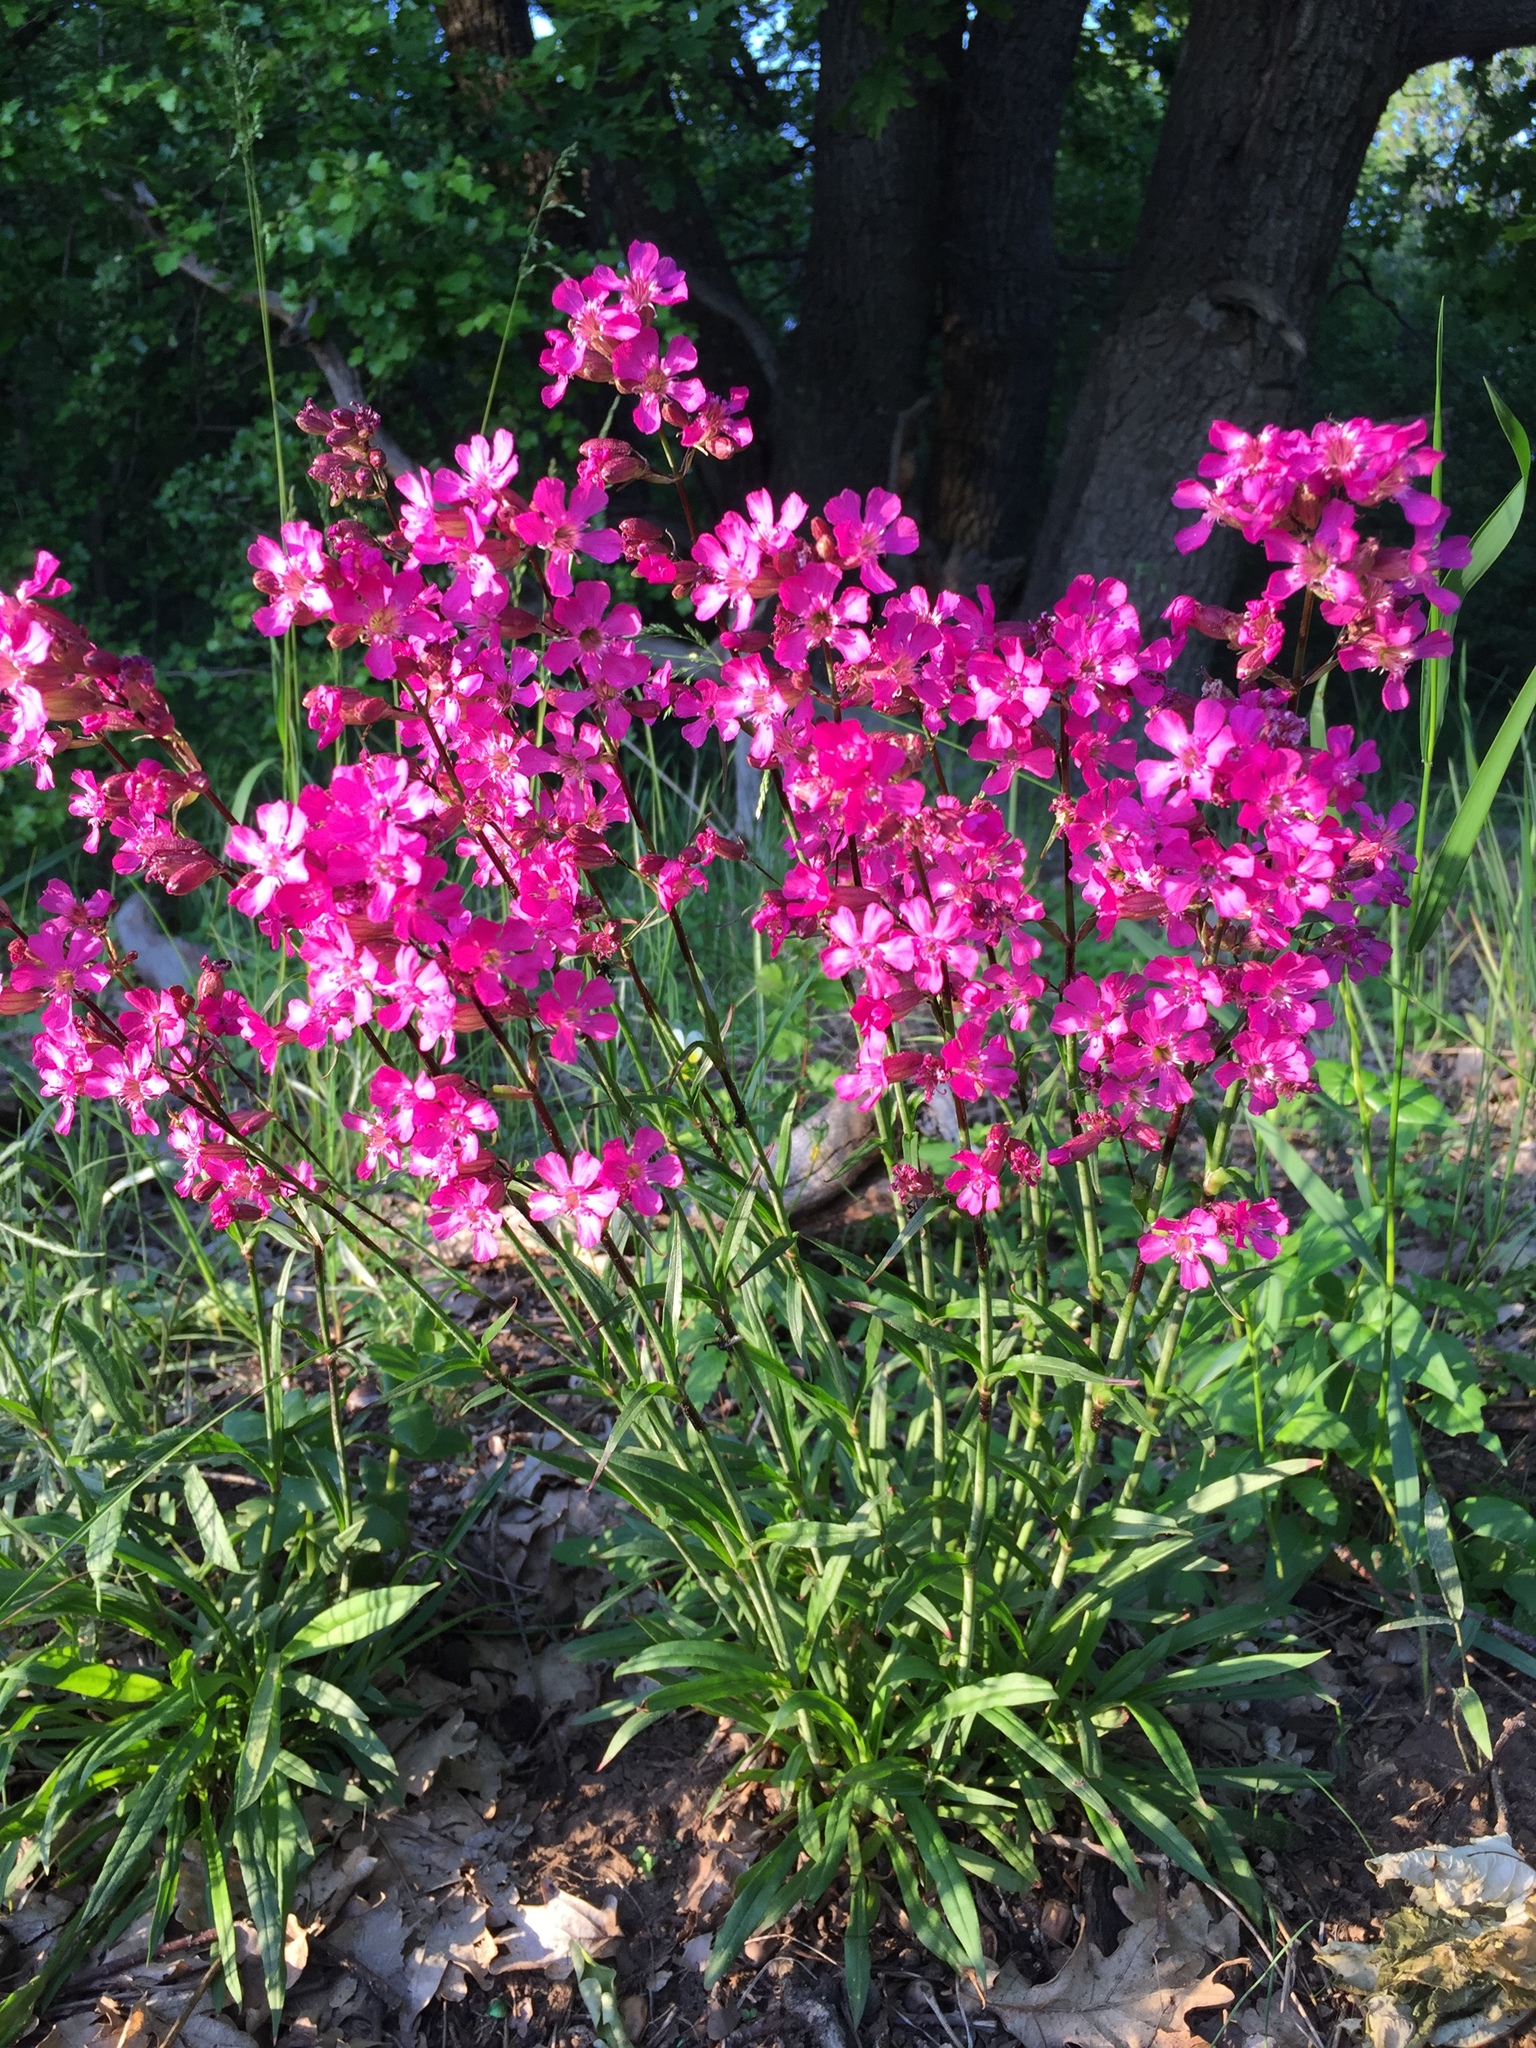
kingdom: Plantae
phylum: Tracheophyta
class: Magnoliopsida
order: Caryophyllales
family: Caryophyllaceae
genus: Viscaria
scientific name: Viscaria vulgaris
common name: Clammy campion
